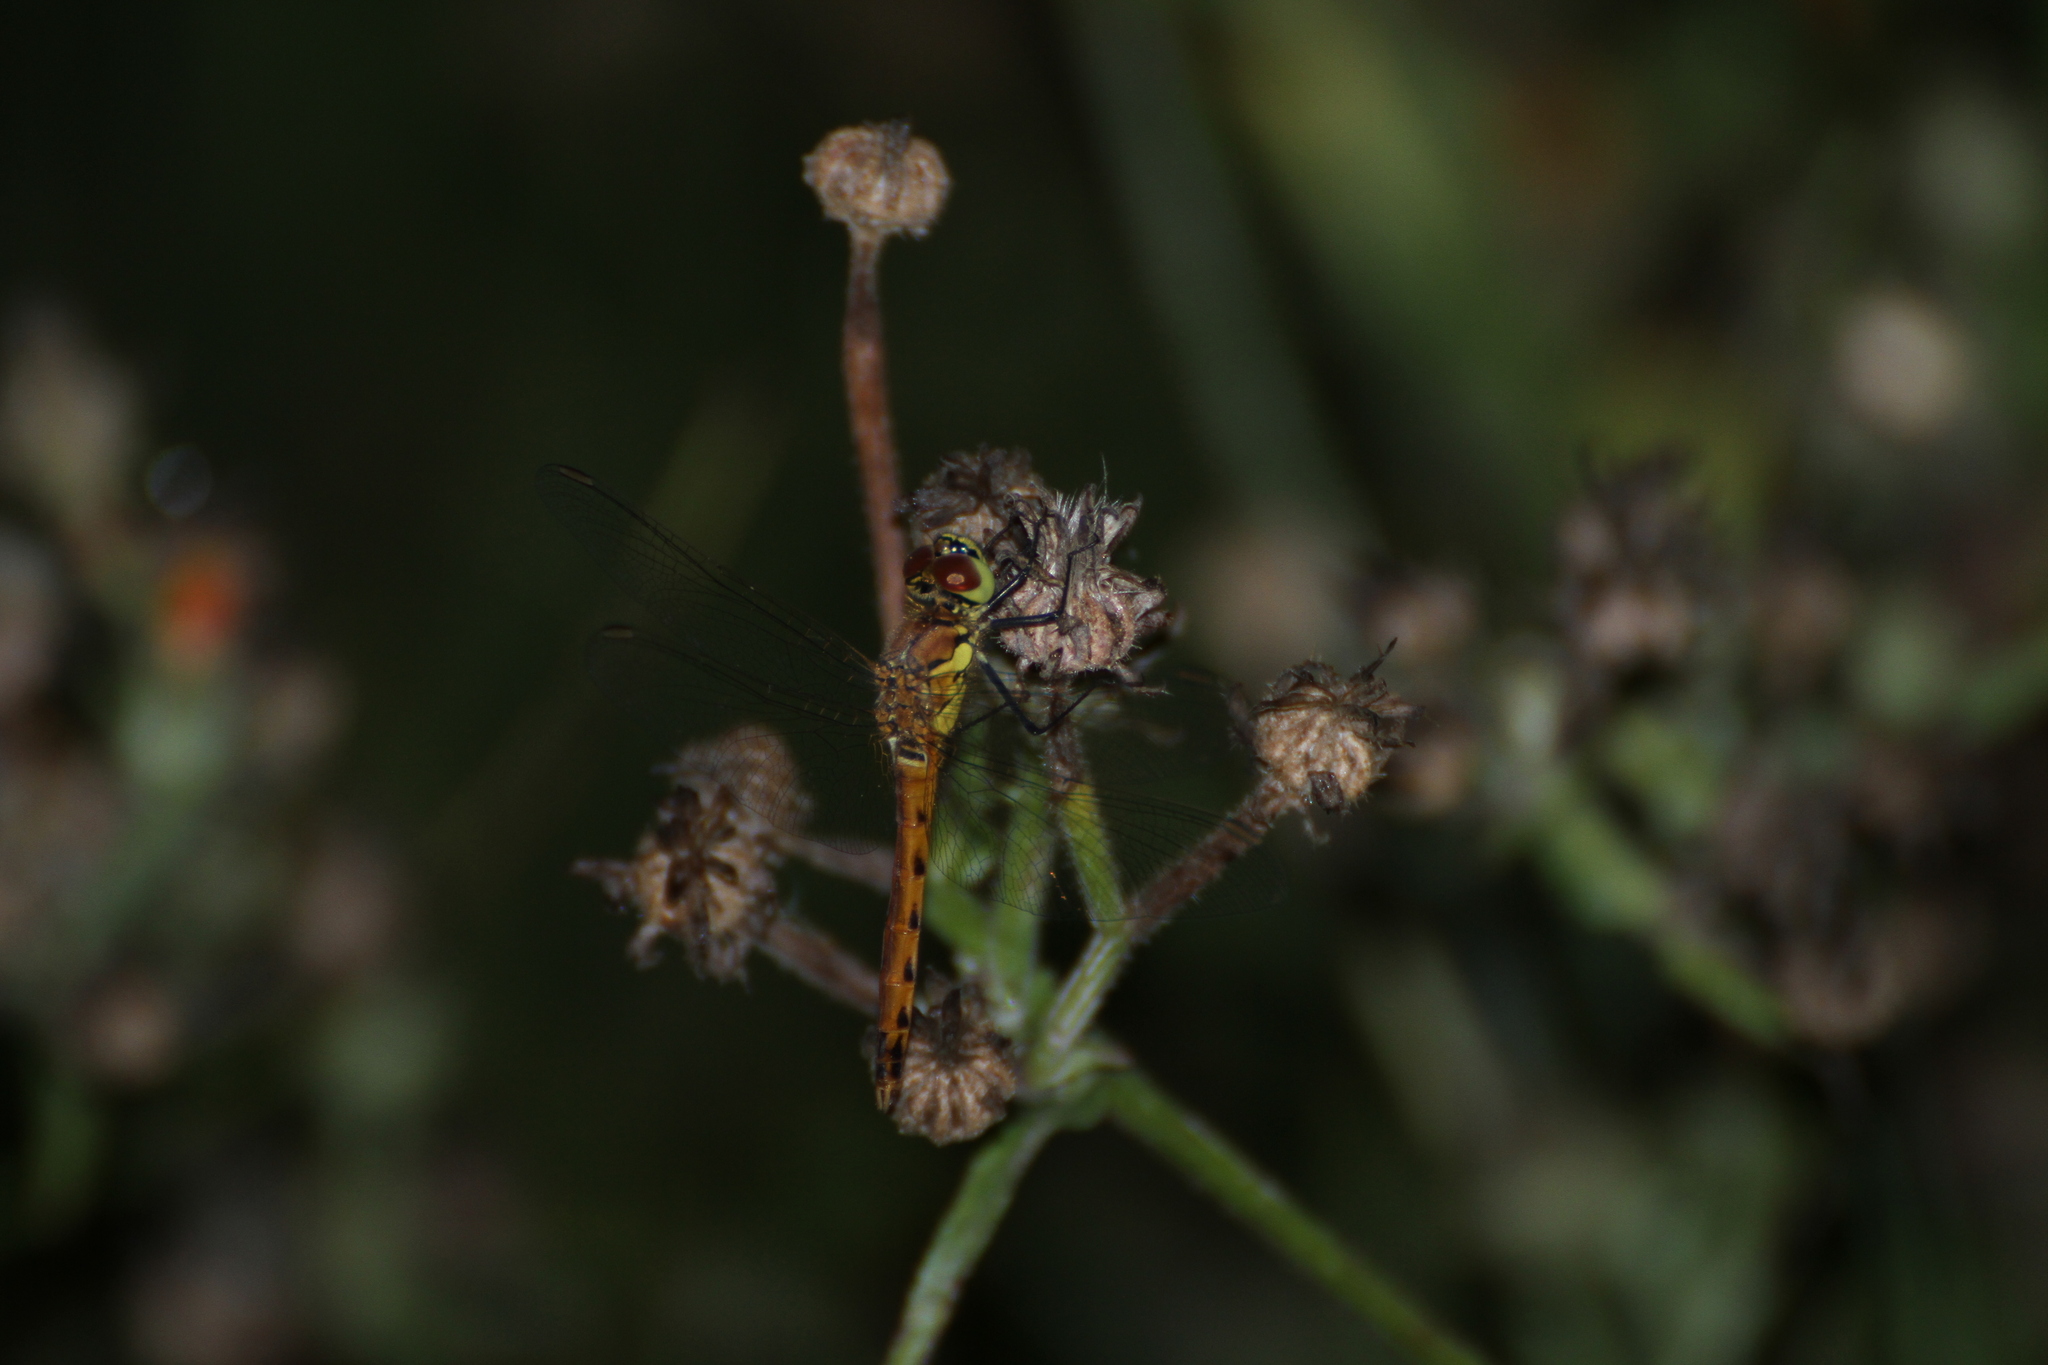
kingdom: Animalia
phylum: Arthropoda
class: Insecta
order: Odonata
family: Libellulidae
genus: Sympetrum
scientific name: Sympetrum depressiusculum
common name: Spotted darter
